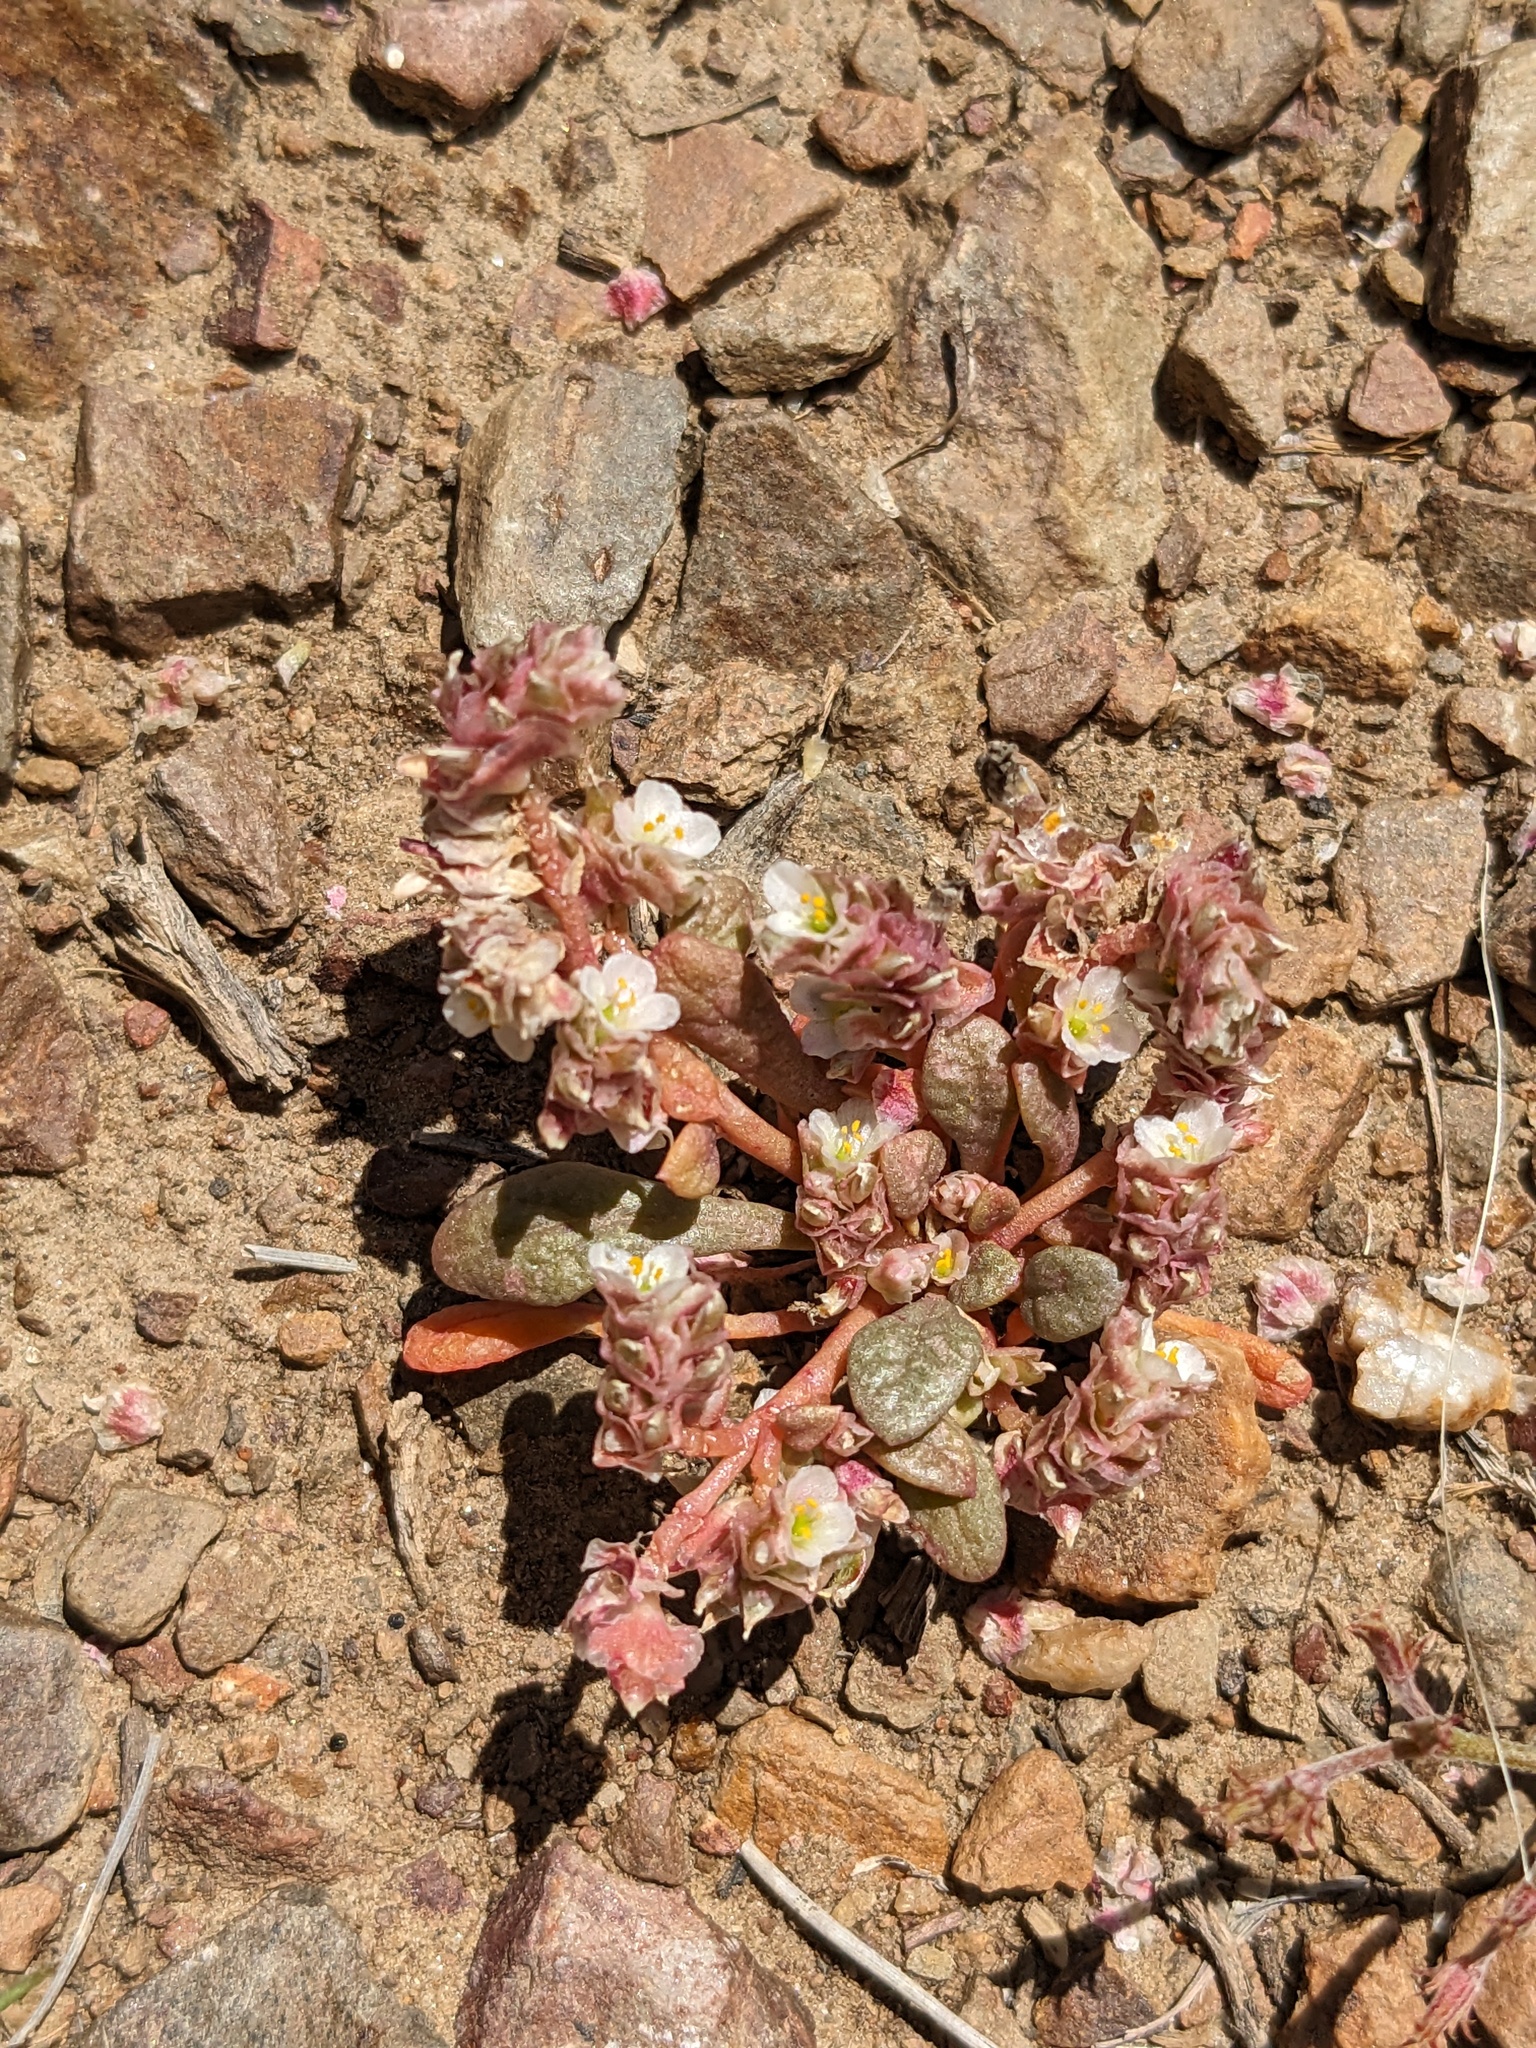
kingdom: Plantae
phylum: Tracheophyta
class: Magnoliopsida
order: Caryophyllales
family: Montiaceae
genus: Calyptridium
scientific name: Calyptridium nevadense
